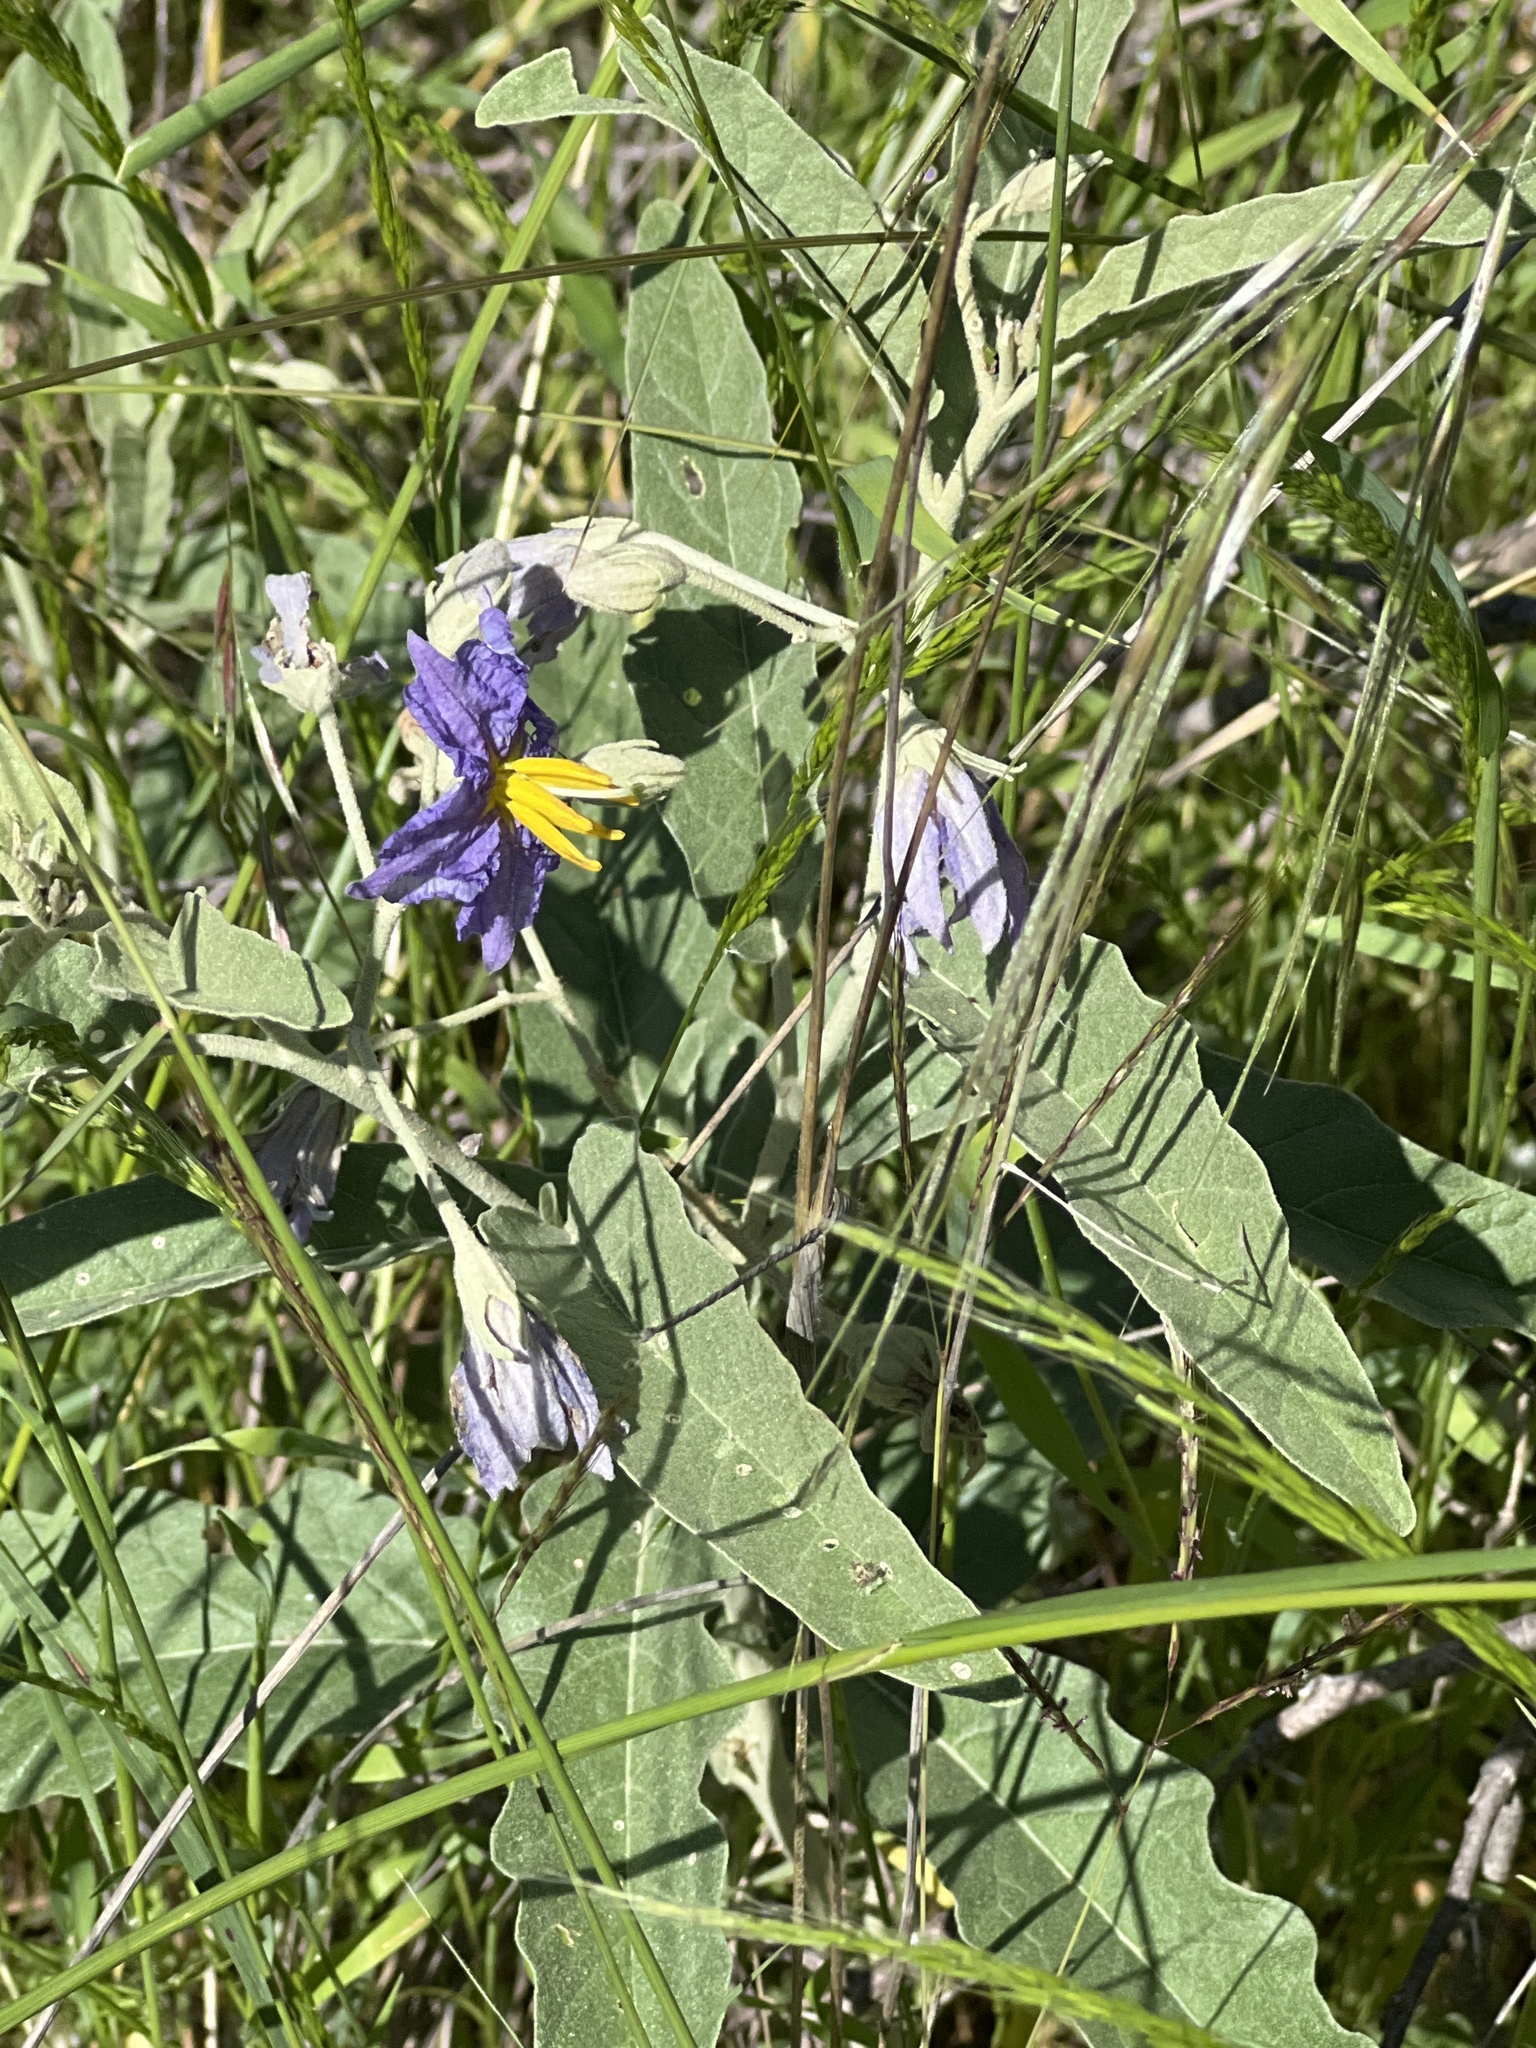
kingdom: Plantae
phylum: Tracheophyta
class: Magnoliopsida
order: Solanales
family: Solanaceae
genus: Solanum
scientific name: Solanum elaeagnifolium
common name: Silverleaf nightshade
